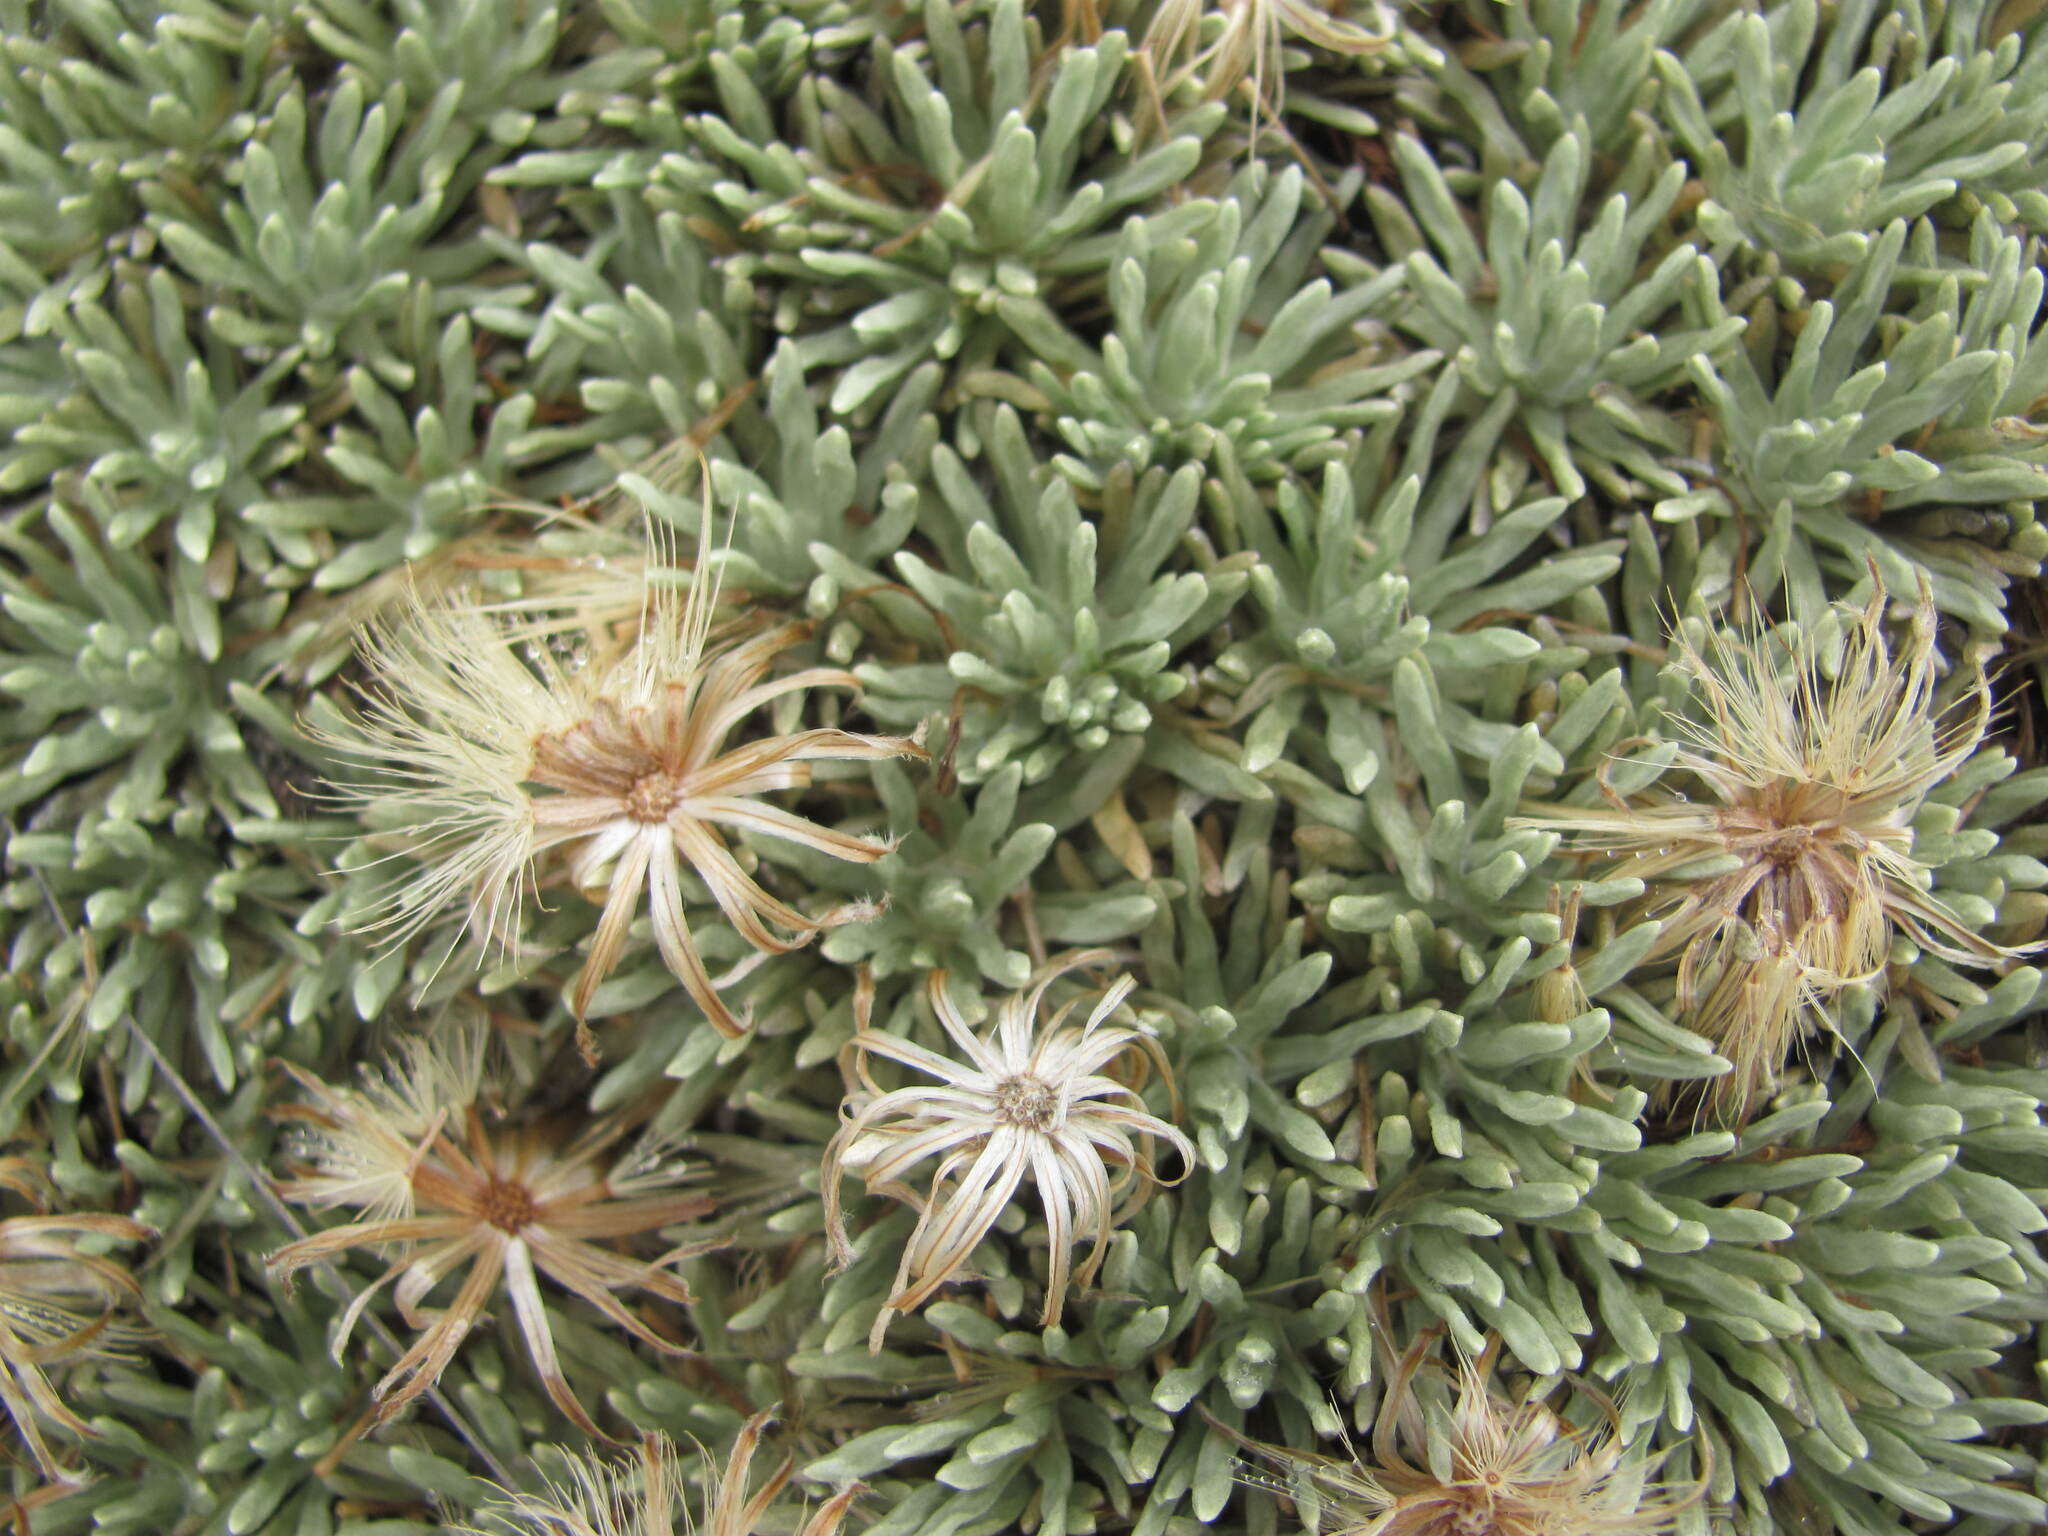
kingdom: Plantae
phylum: Tracheophyta
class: Magnoliopsida
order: Asterales
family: Asteraceae
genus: Celmisia
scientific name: Celmisia sessiliflora
